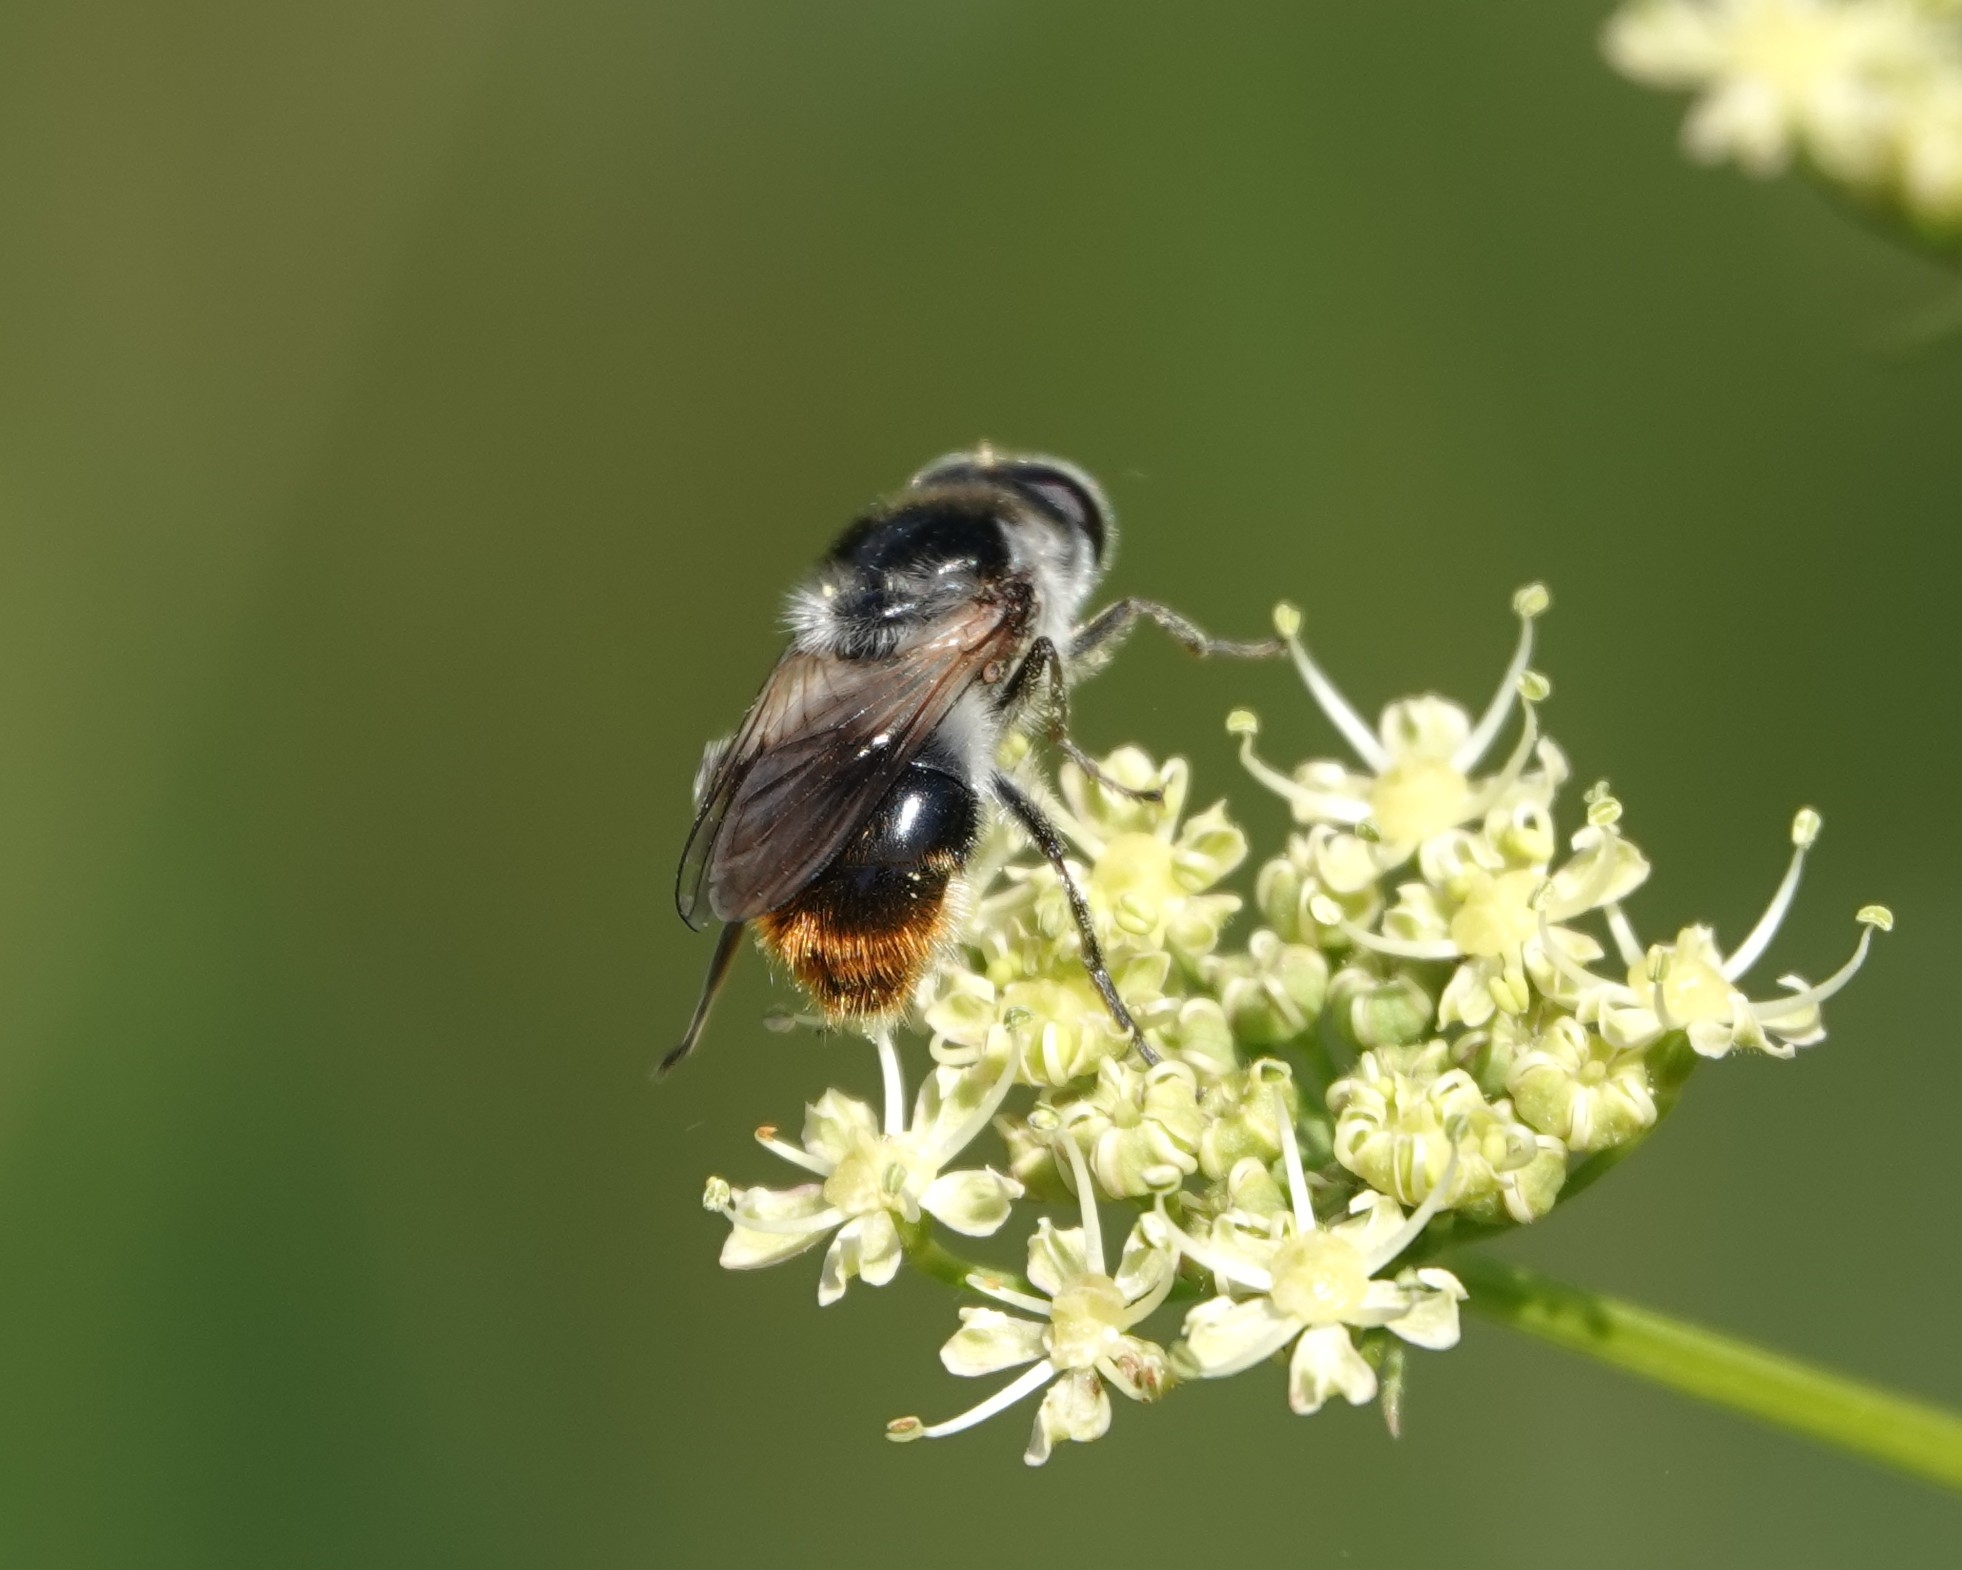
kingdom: Animalia
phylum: Arthropoda
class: Insecta
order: Diptera
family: Syrphidae
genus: Cheilosia
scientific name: Cheilosia illustrata
